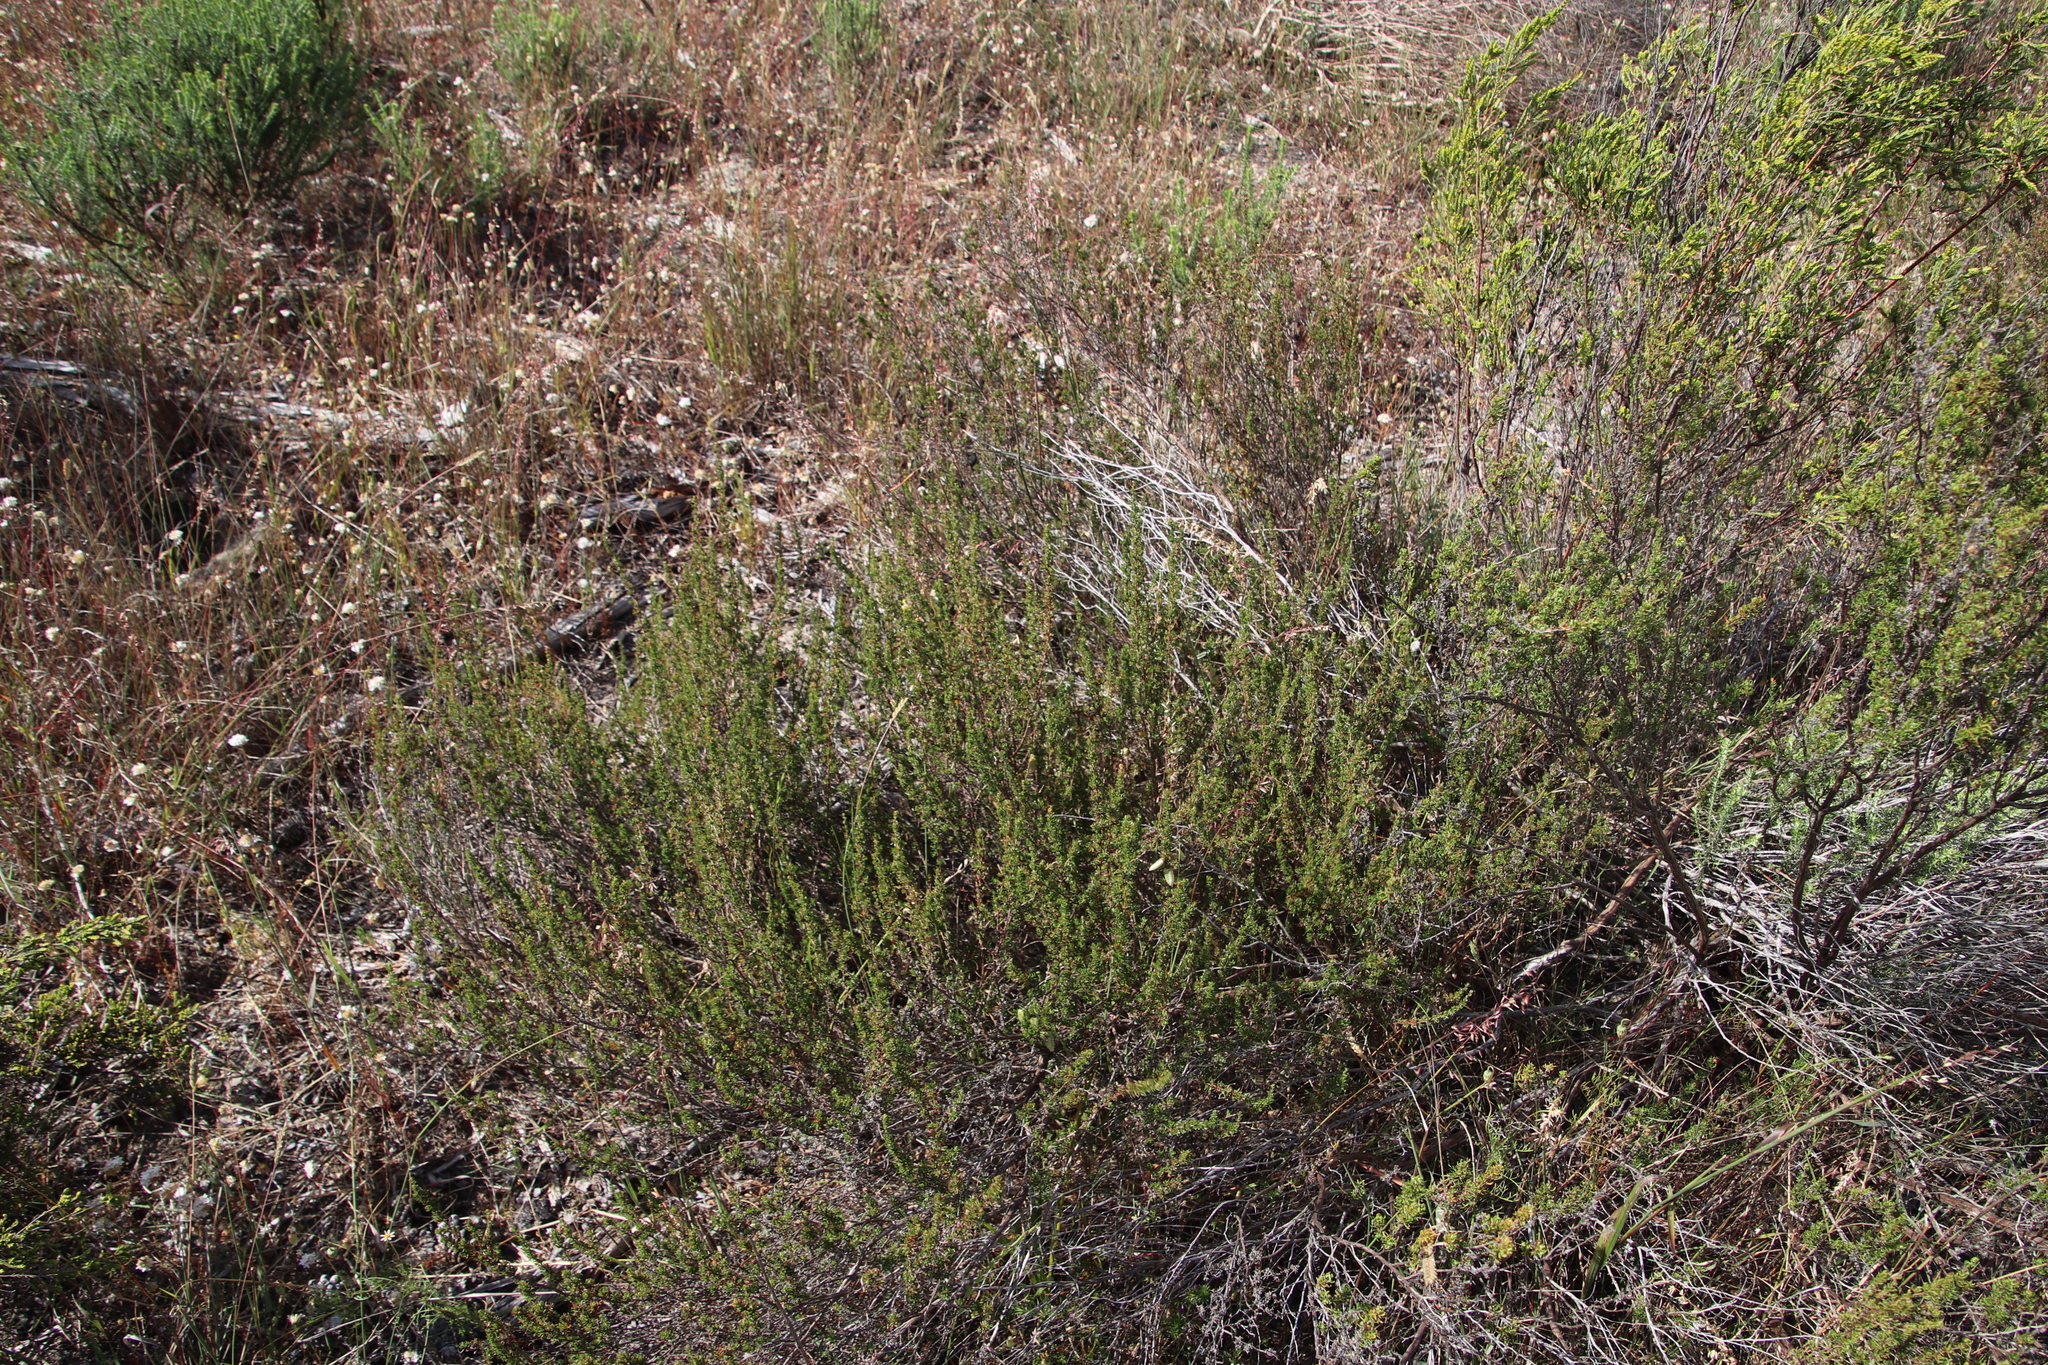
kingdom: Plantae
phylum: Tracheophyta
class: Magnoliopsida
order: Rosales
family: Rosaceae
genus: Cliffortia
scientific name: Cliffortia falcata
